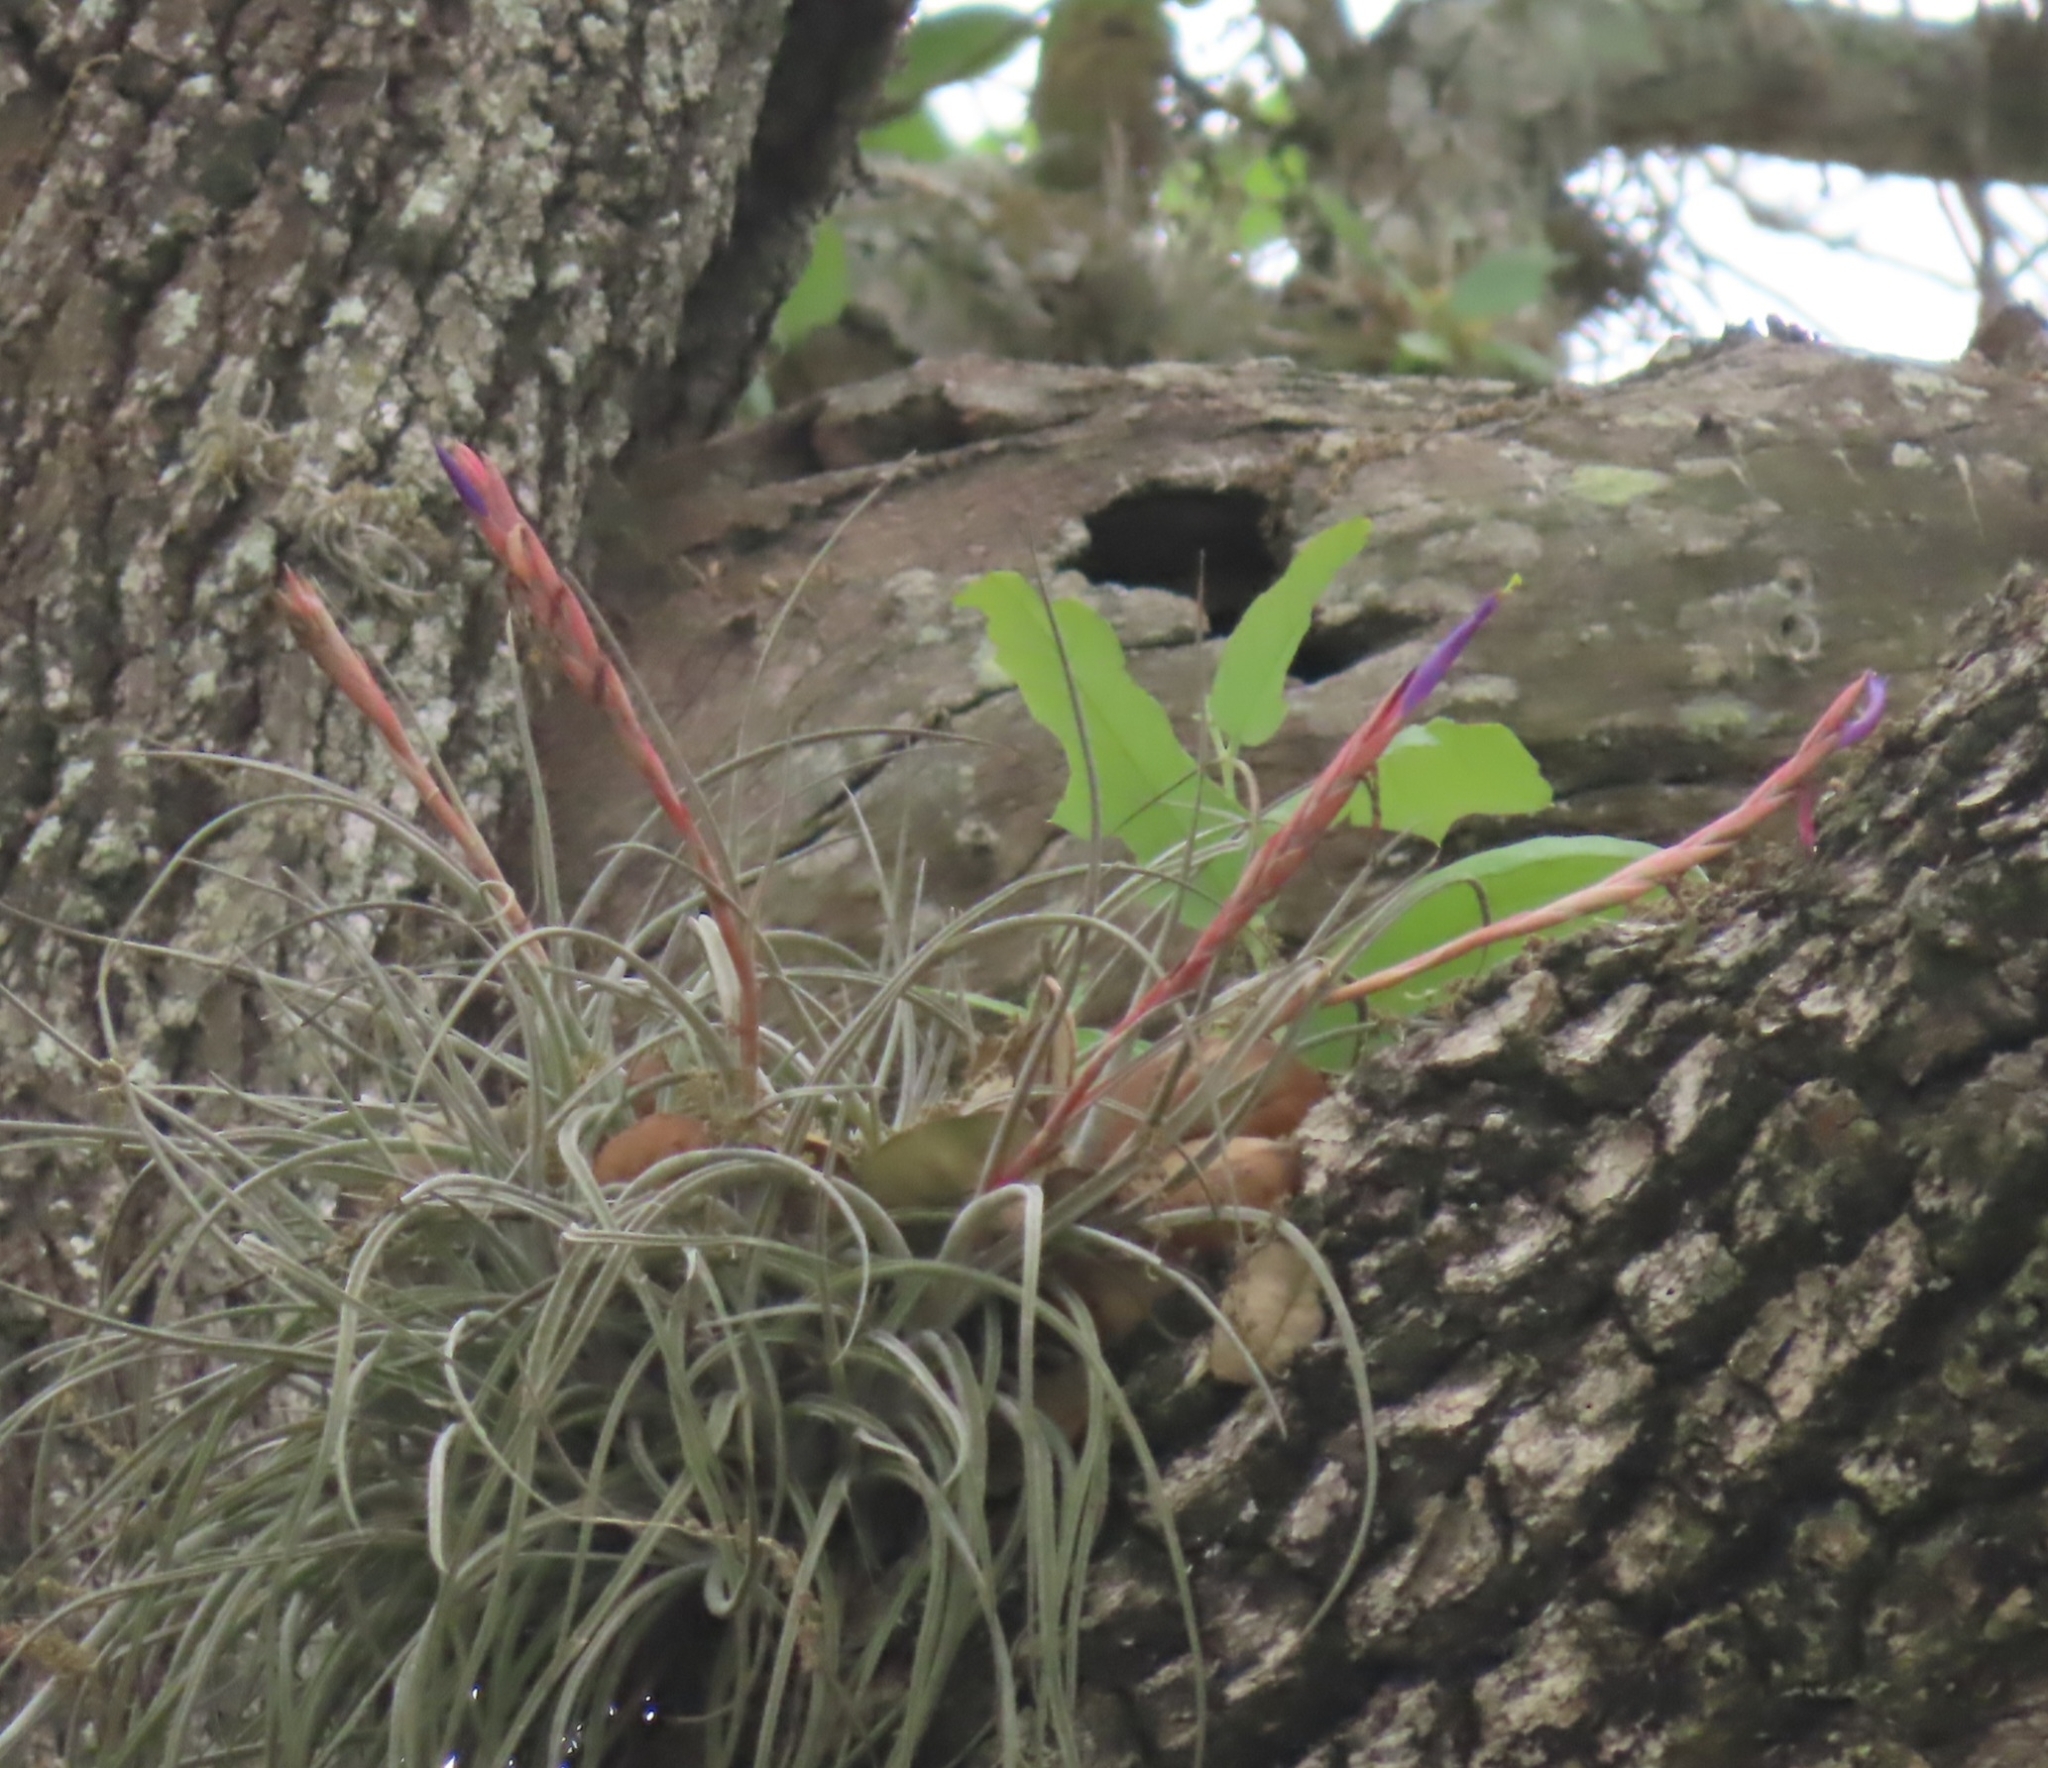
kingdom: Plantae
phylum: Tracheophyta
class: Liliopsida
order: Poales
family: Bromeliaceae
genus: Tillandsia
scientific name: Tillandsia baileyi
